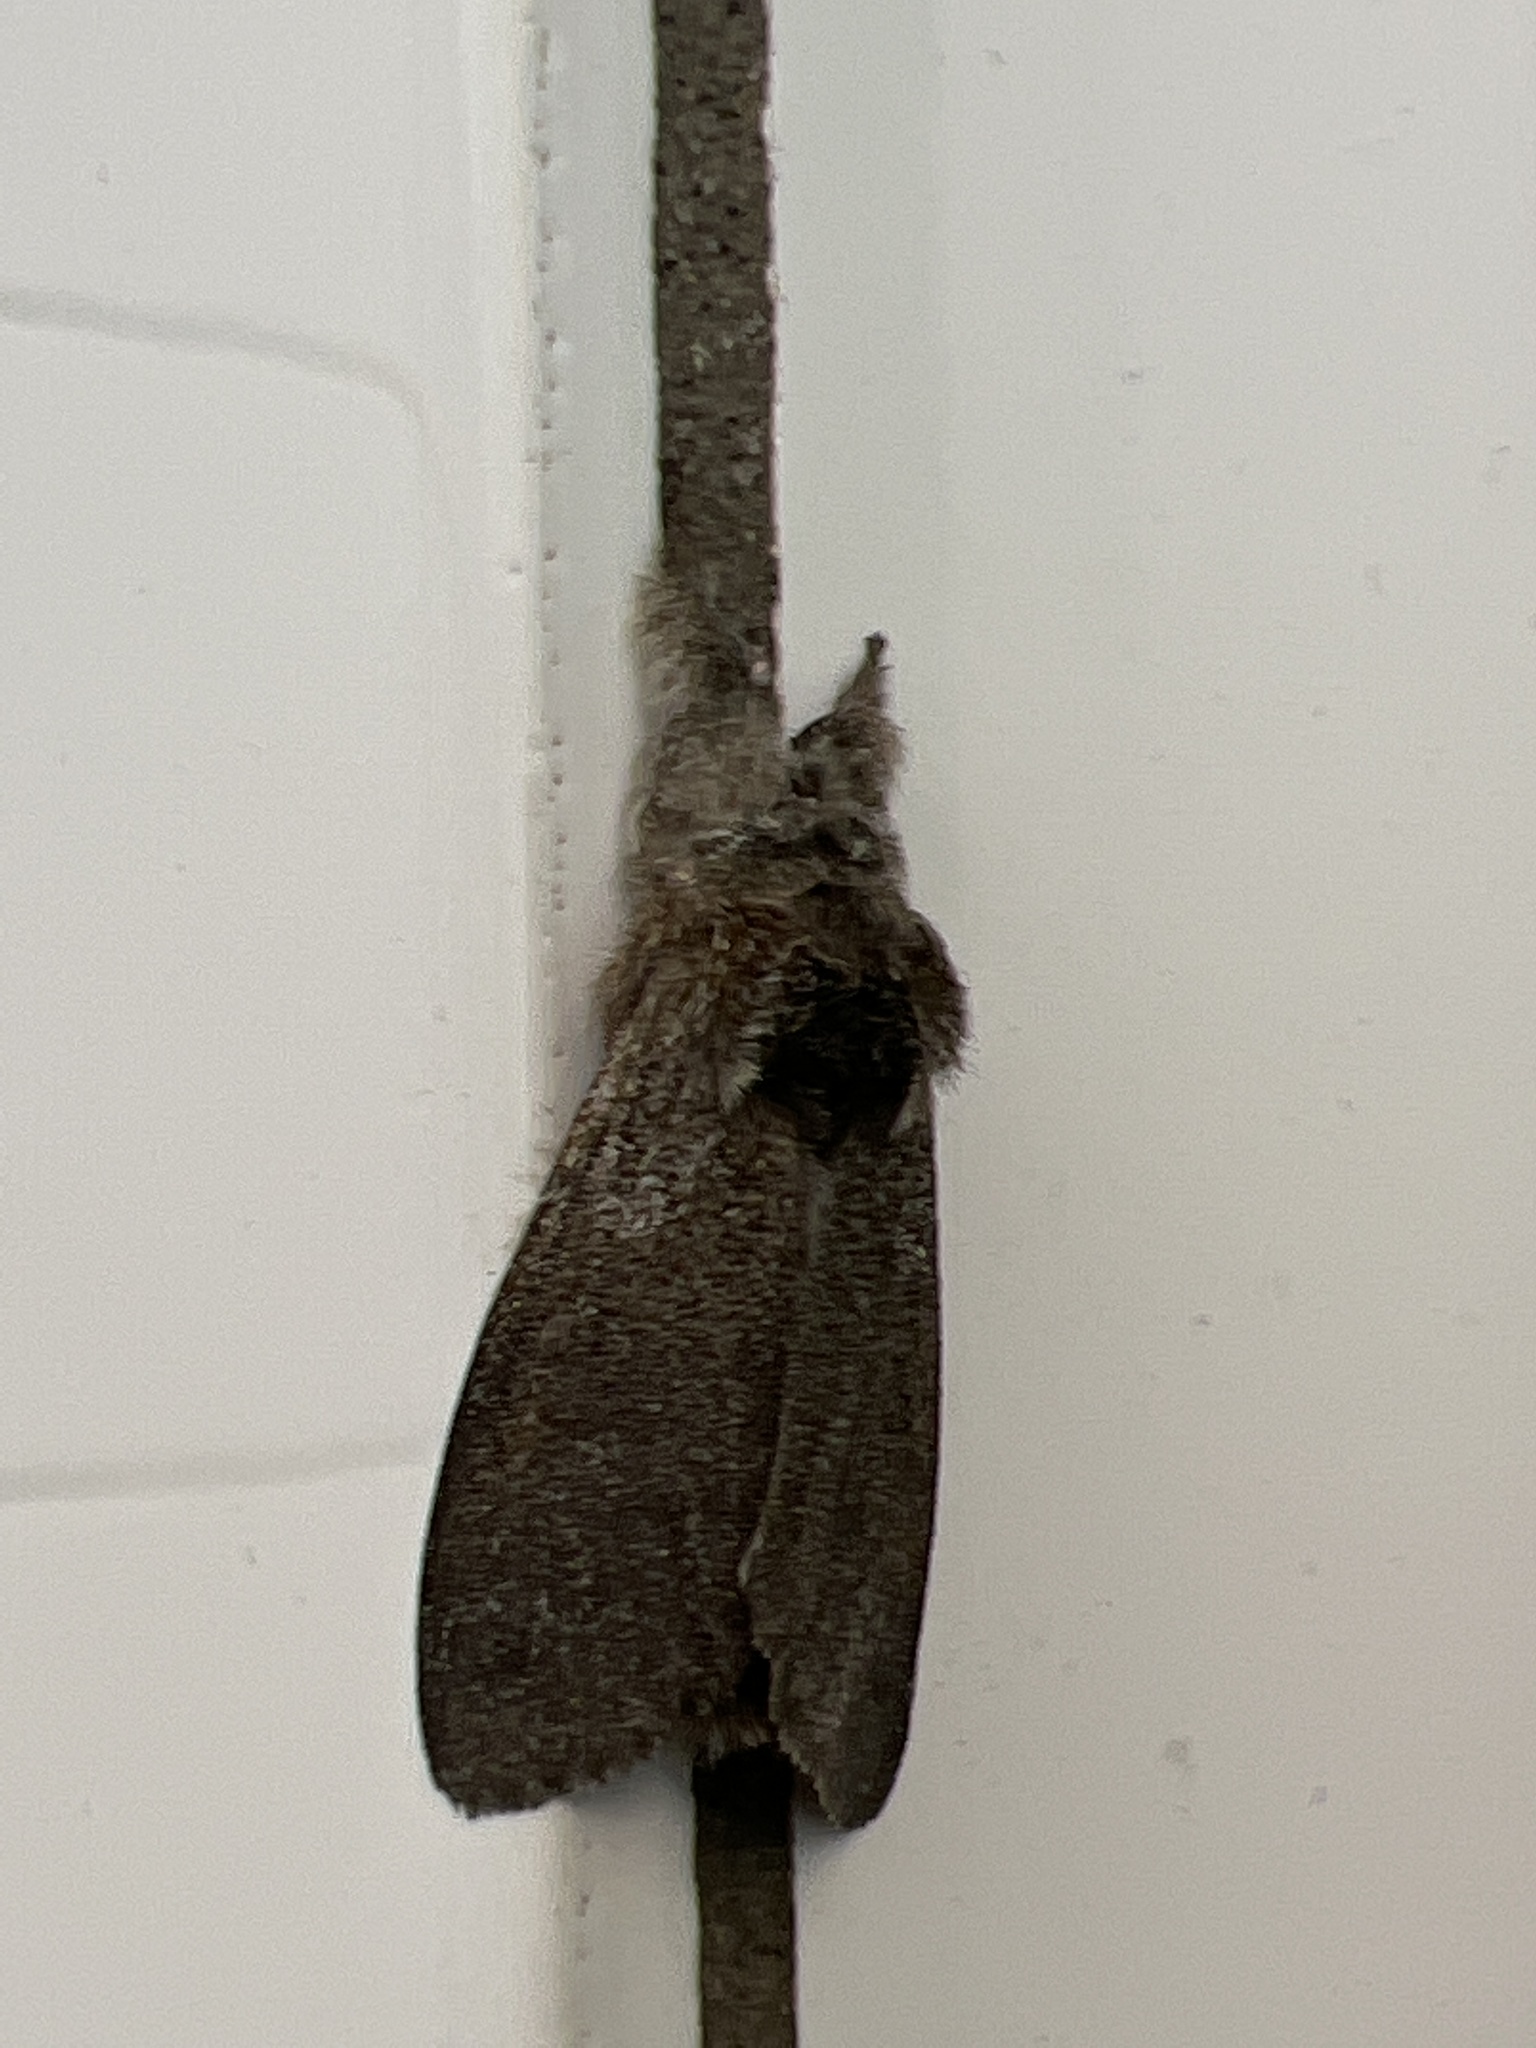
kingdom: Animalia
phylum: Arthropoda
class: Insecta
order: Lepidoptera
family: Erebidae
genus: Calliteara
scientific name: Calliteara pudibunda
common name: Pale tussock
